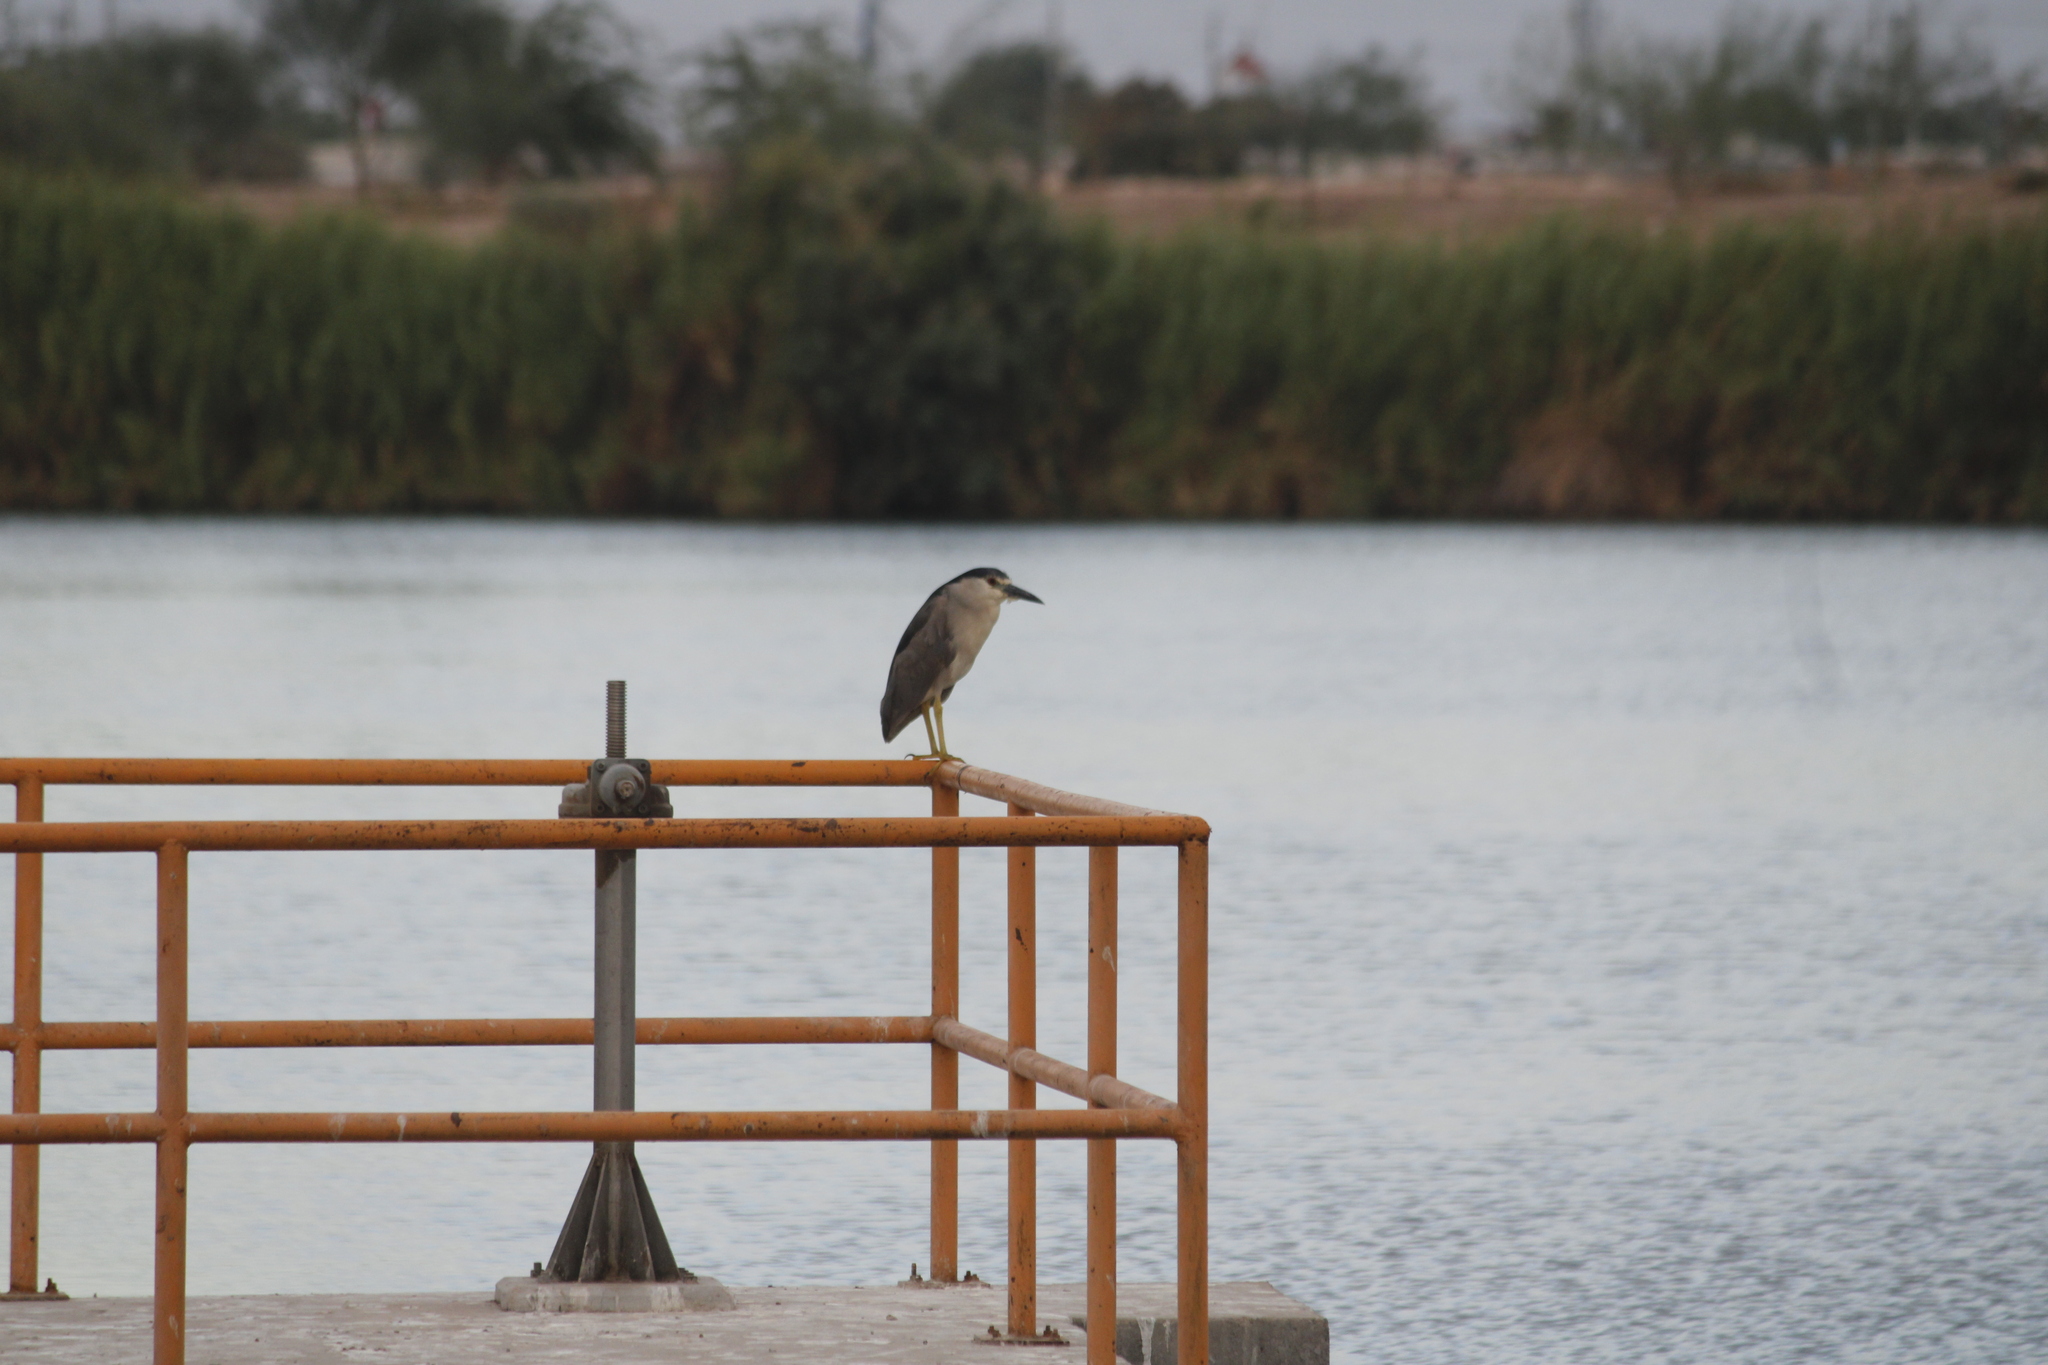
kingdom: Animalia
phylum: Chordata
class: Aves
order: Pelecaniformes
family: Ardeidae
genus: Nycticorax
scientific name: Nycticorax nycticorax
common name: Black-crowned night heron
